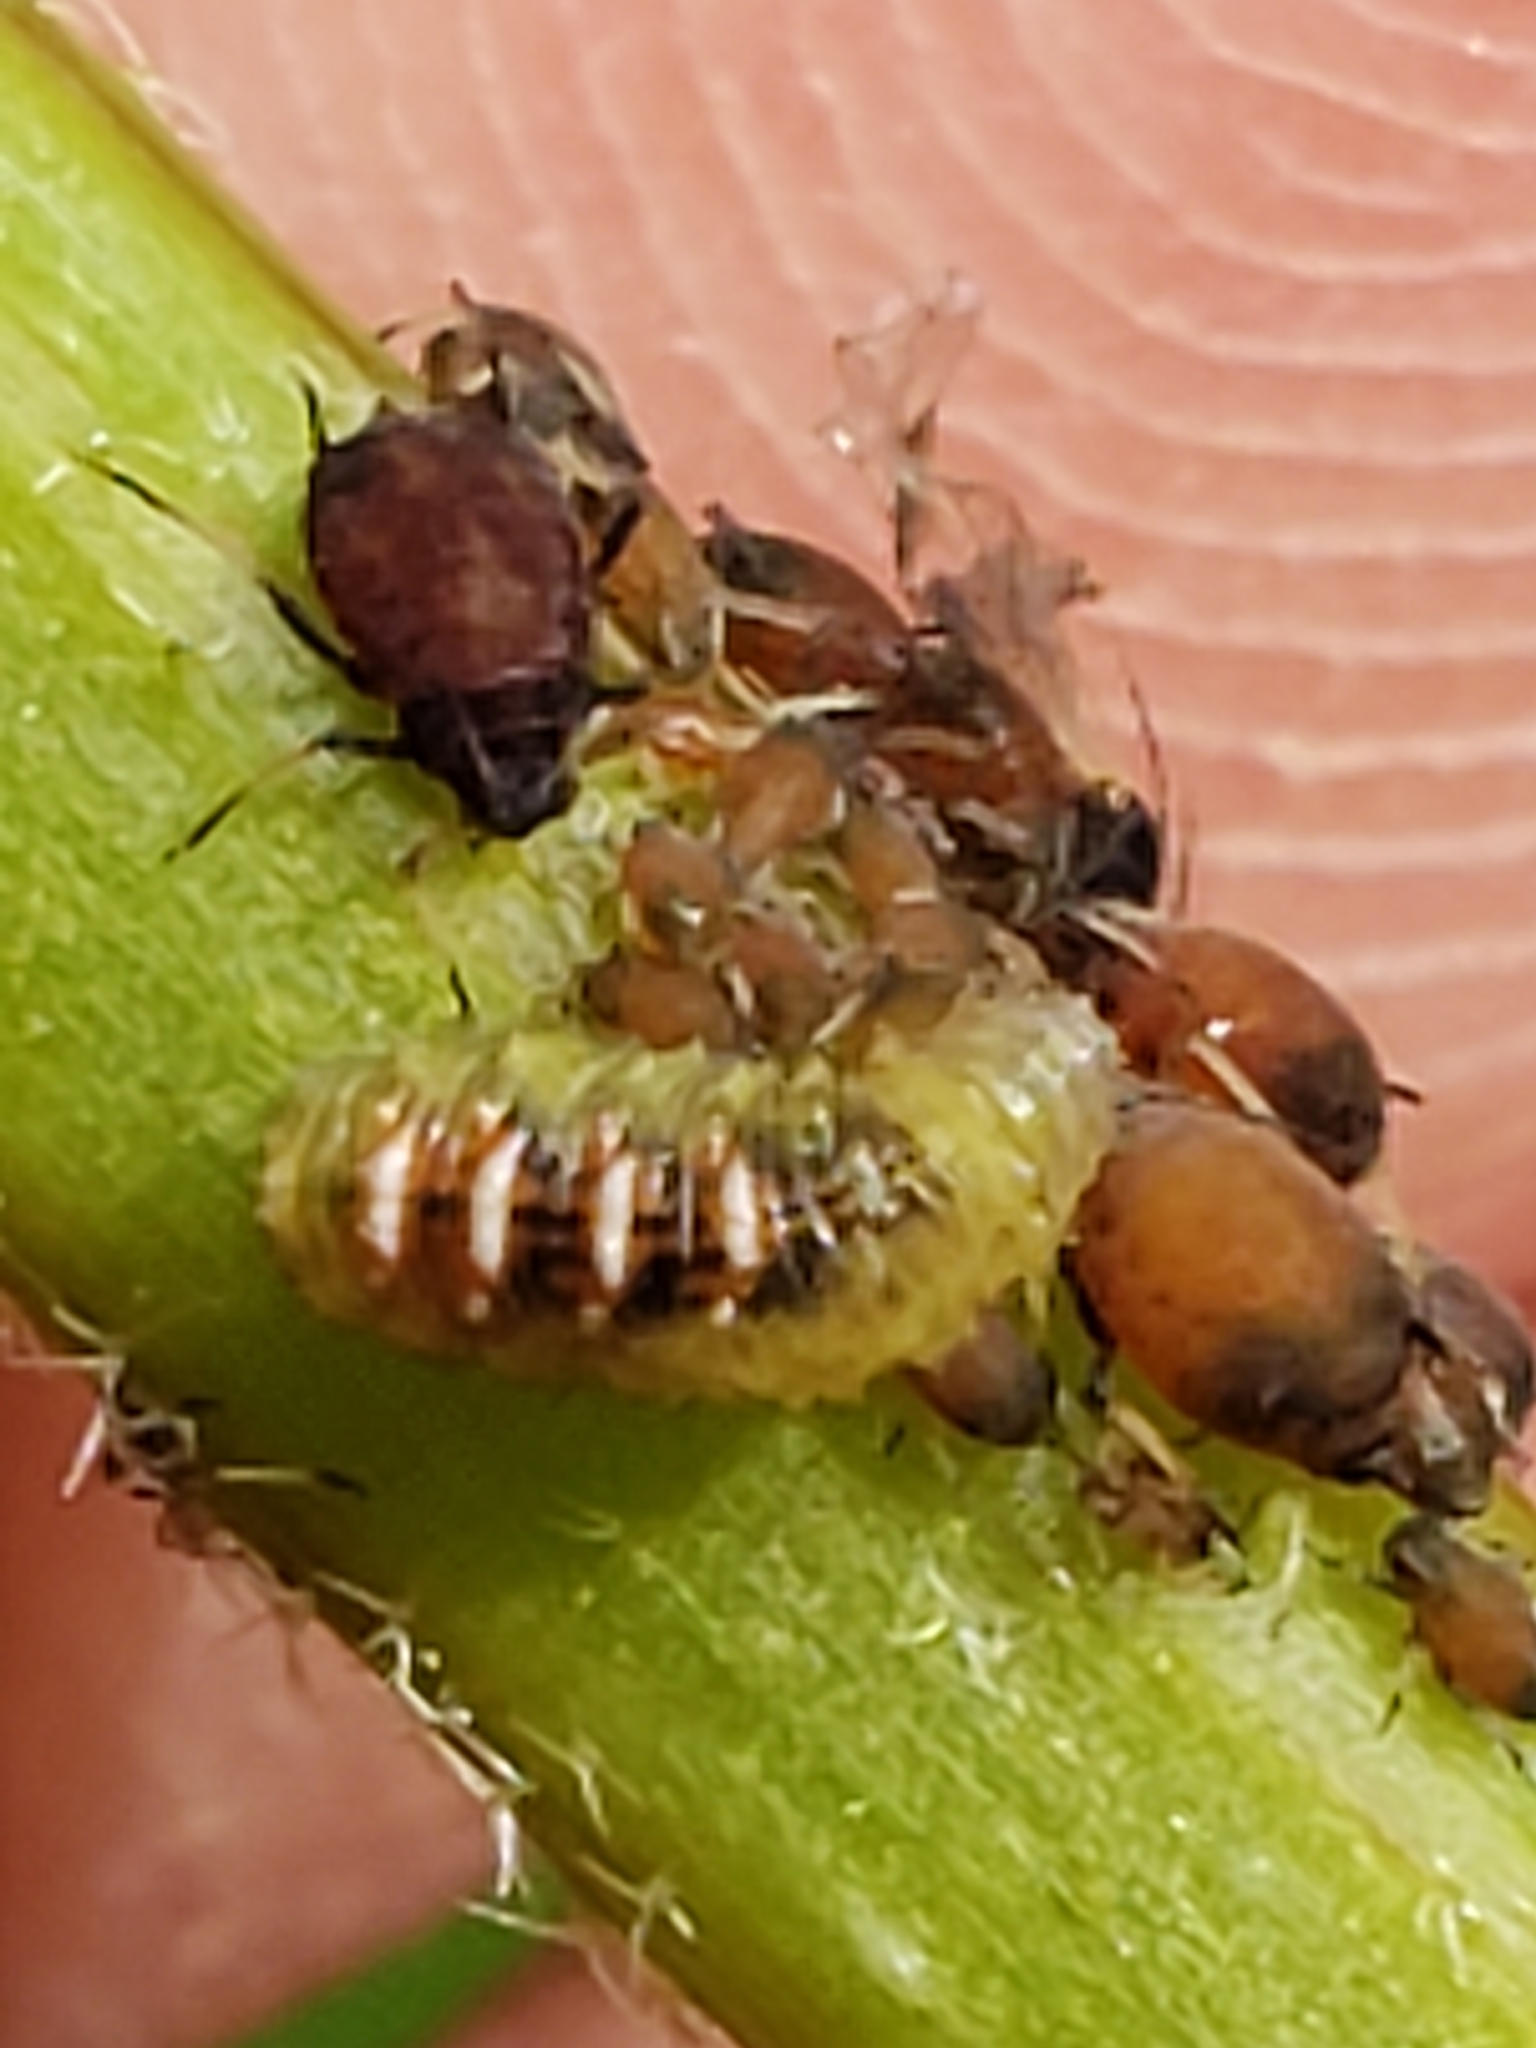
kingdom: Animalia
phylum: Arthropoda
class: Insecta
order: Diptera
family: Syrphidae
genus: Eupeodes
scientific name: Eupeodes pomus
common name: Short-tailed aphideater
